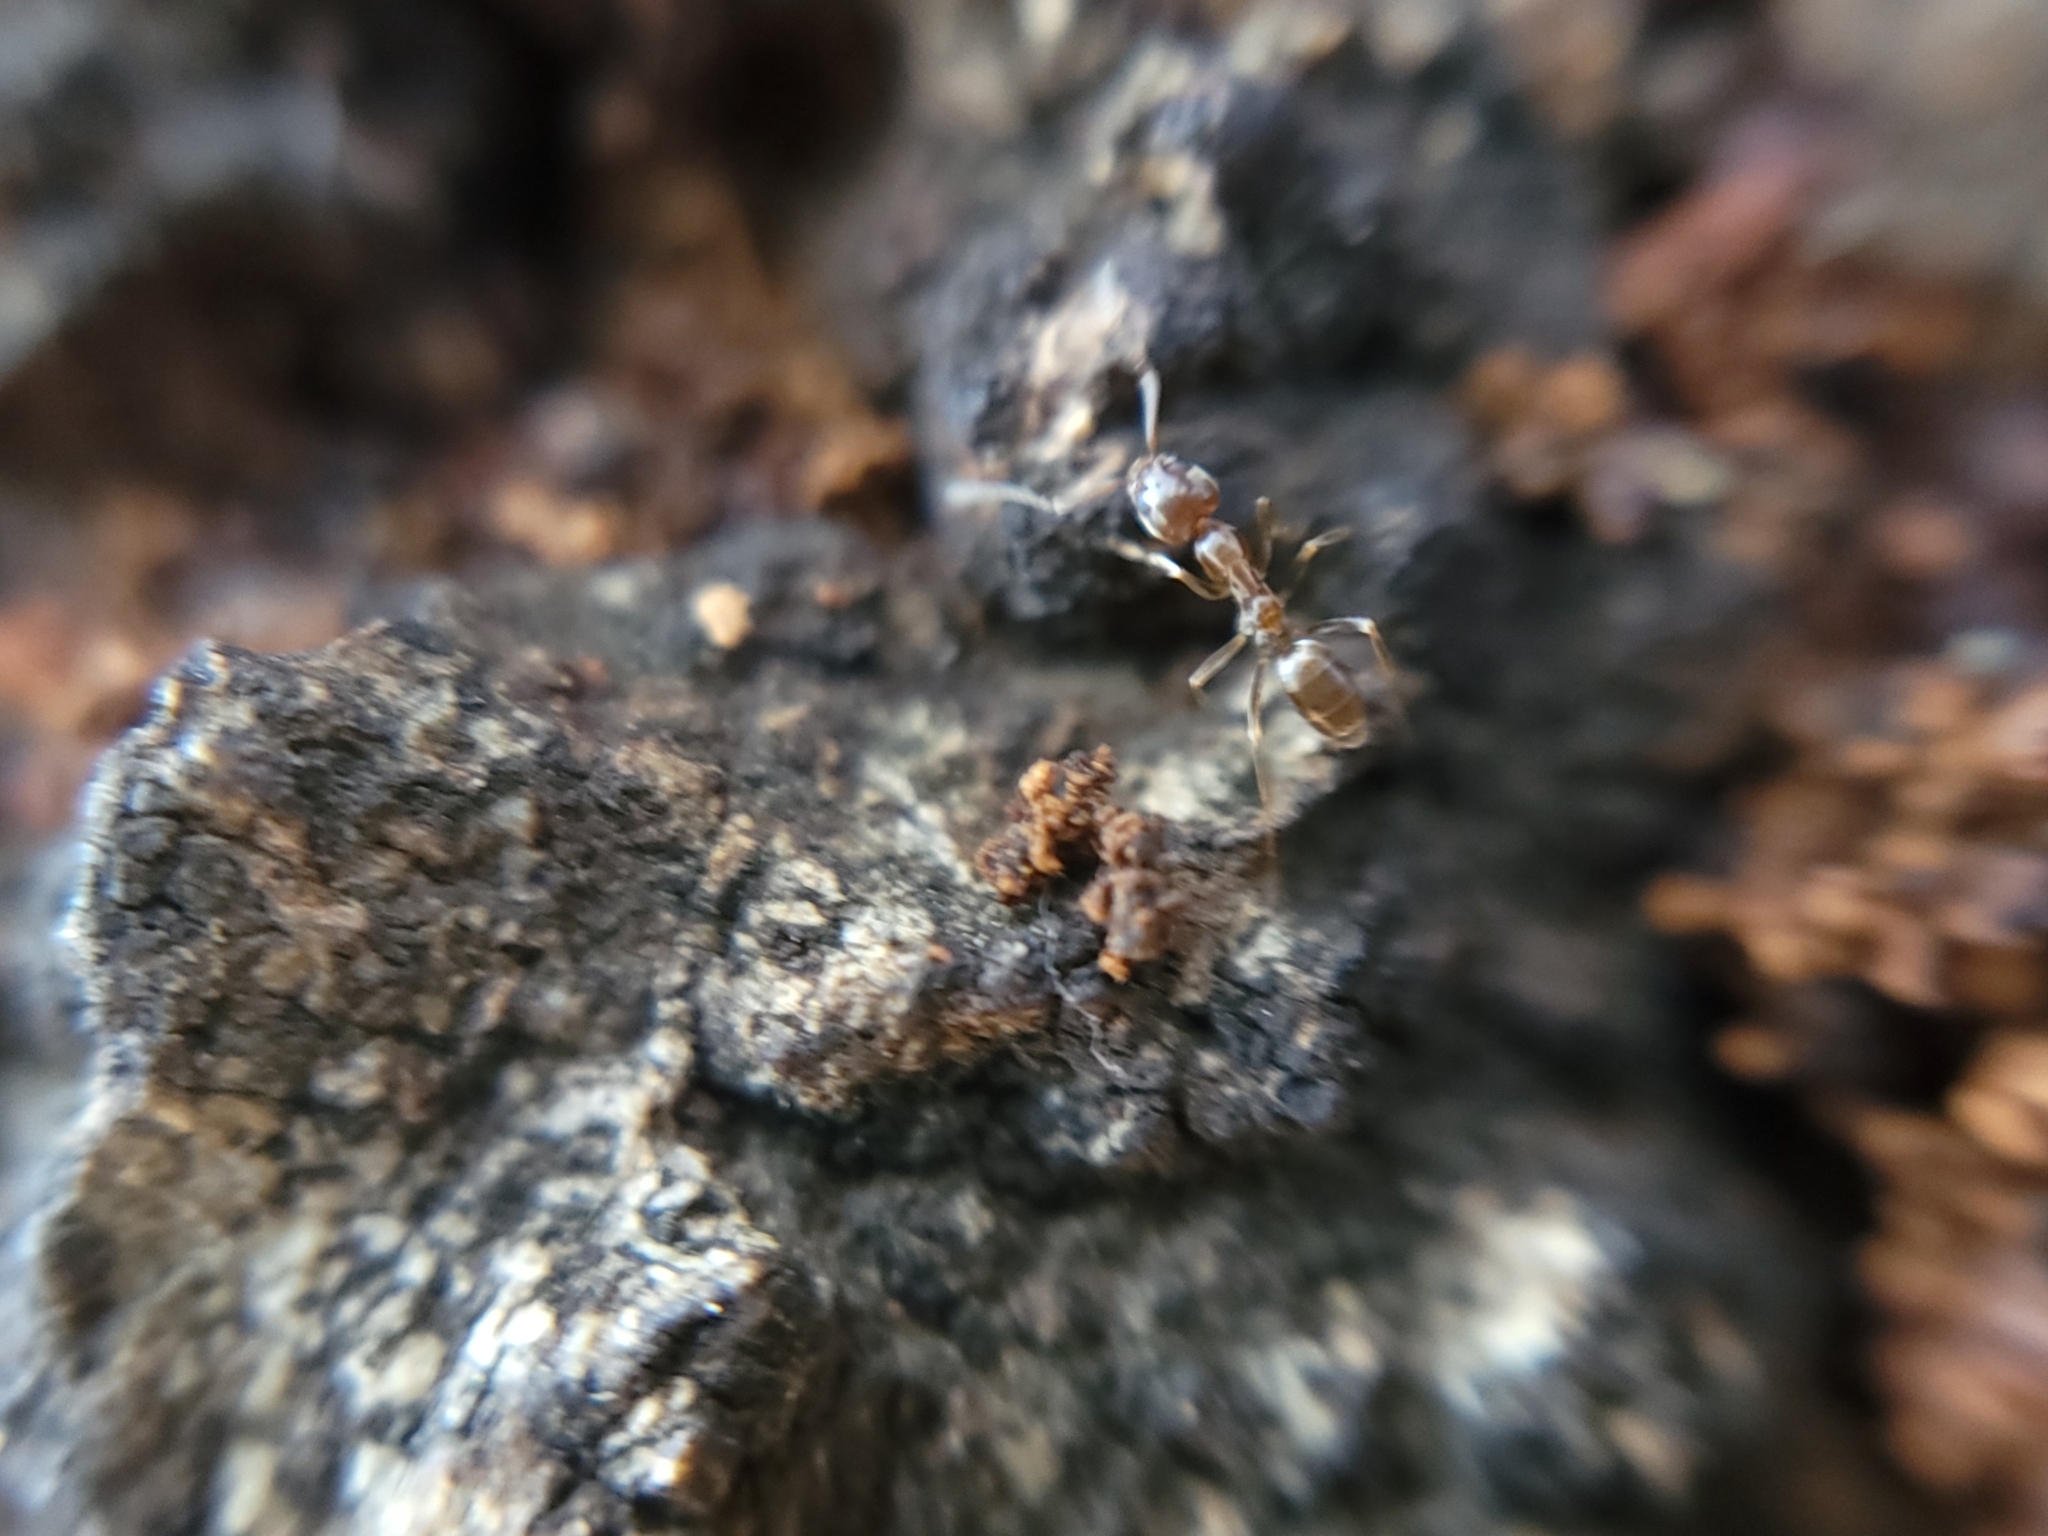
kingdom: Animalia
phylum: Arthropoda
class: Insecta
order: Hymenoptera
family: Formicidae
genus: Linepithema
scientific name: Linepithema humile
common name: Argentine ant
